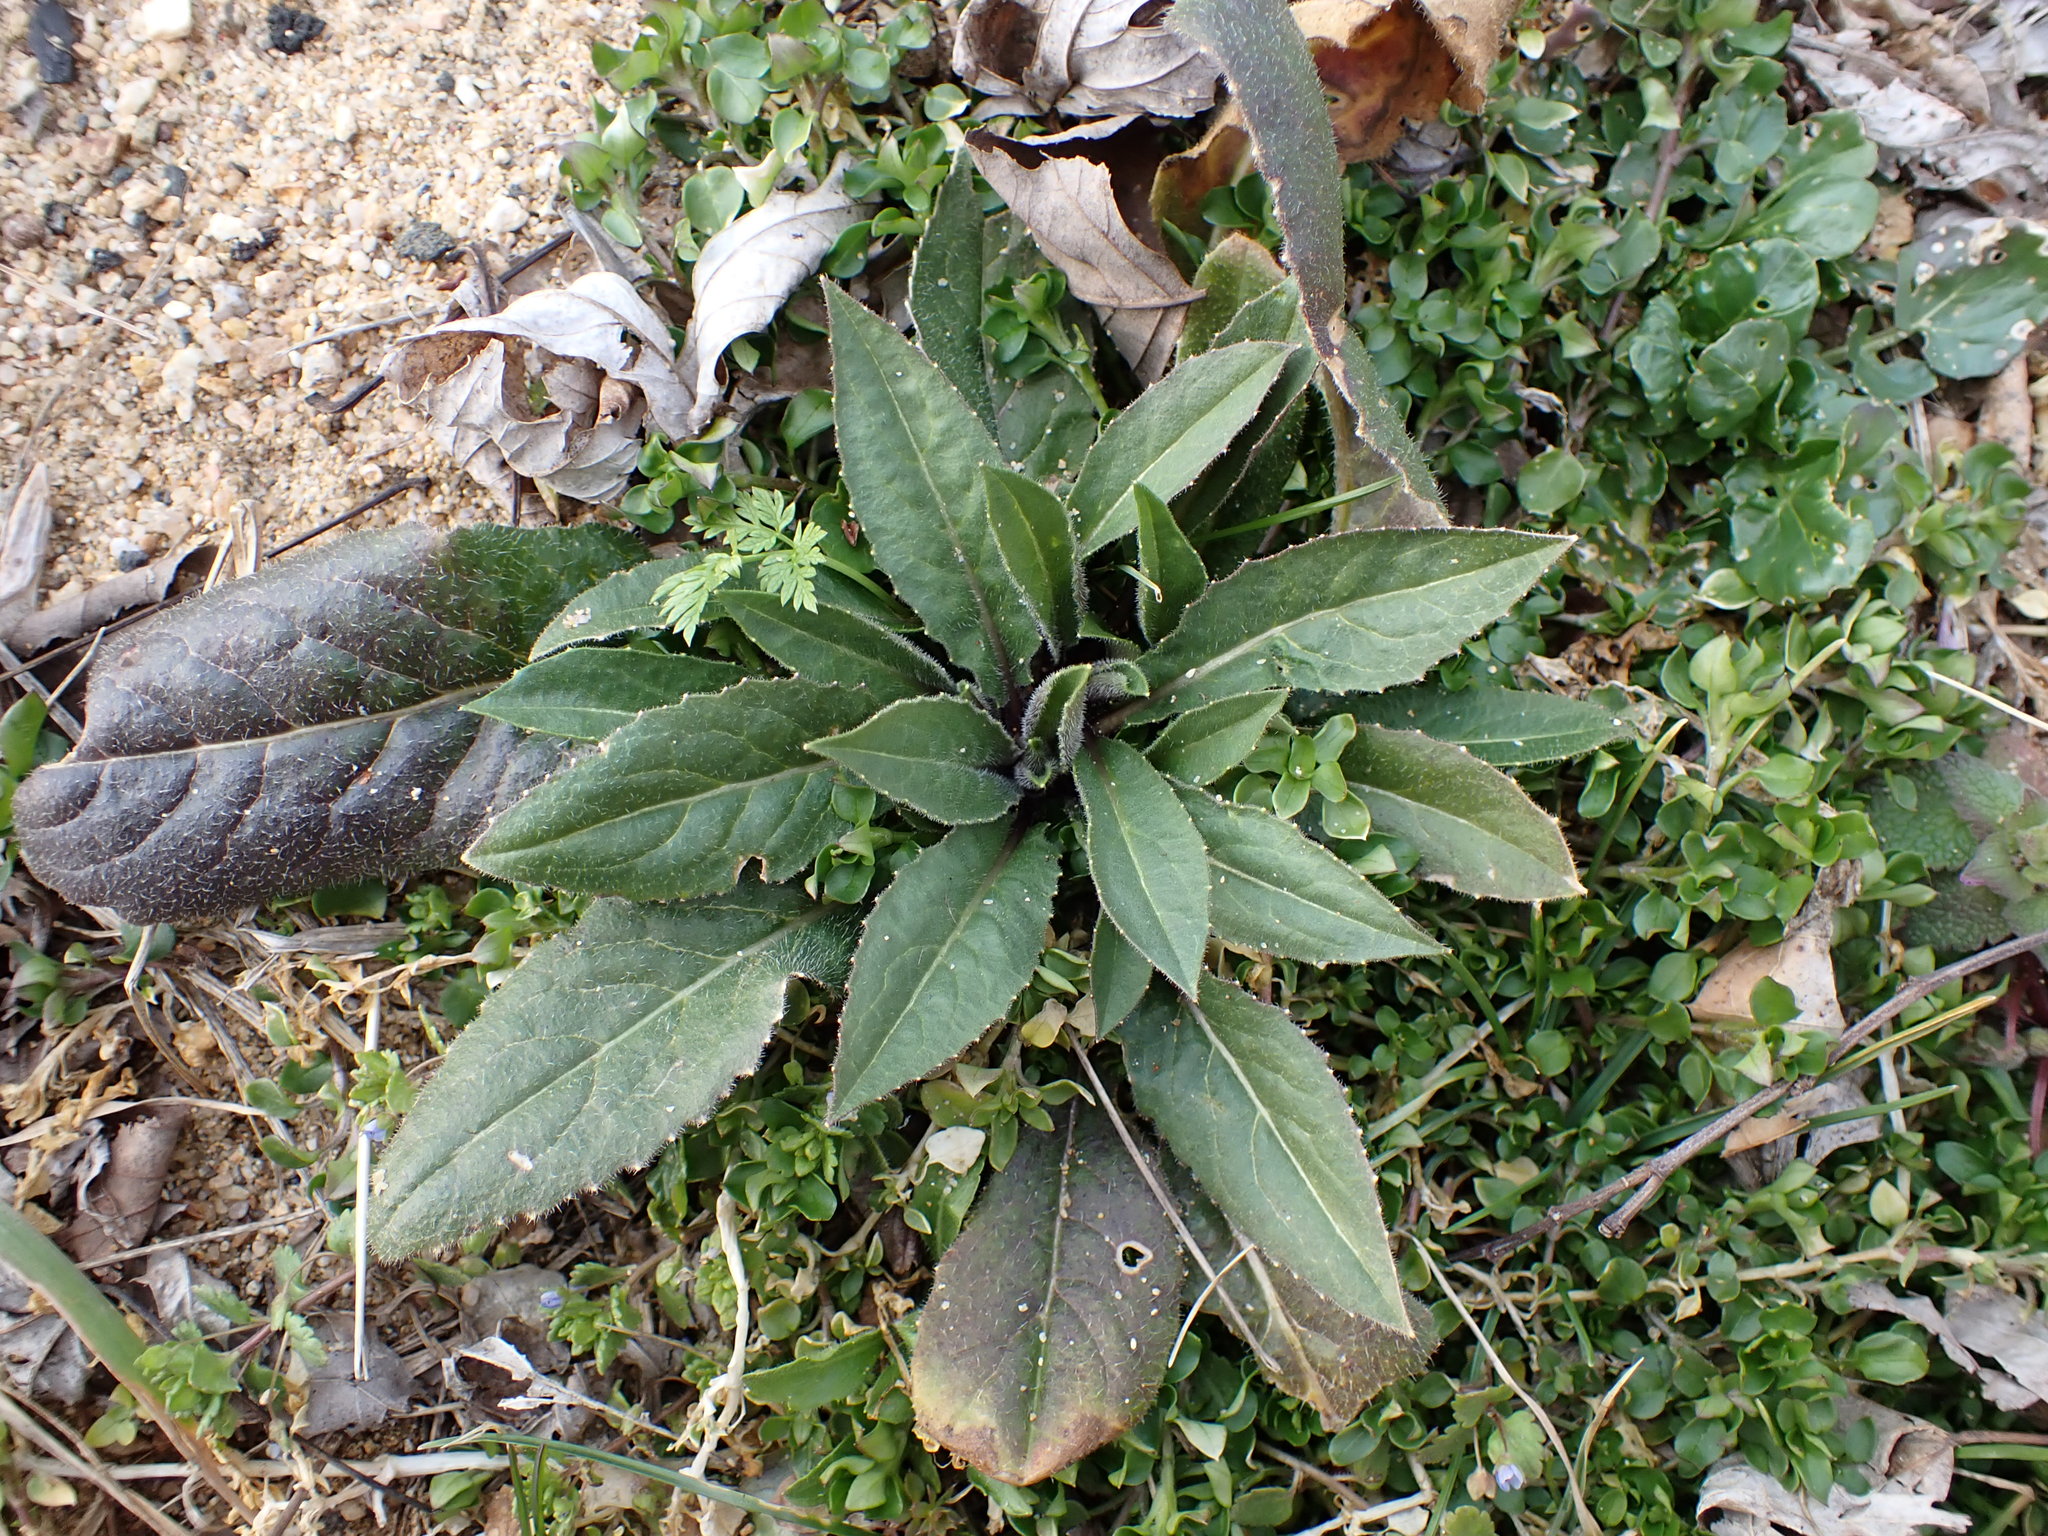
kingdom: Plantae
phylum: Tracheophyta
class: Magnoliopsida
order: Brassicales
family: Brassicaceae
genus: Hesperis
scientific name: Hesperis matronalis
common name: Dame's-violet
